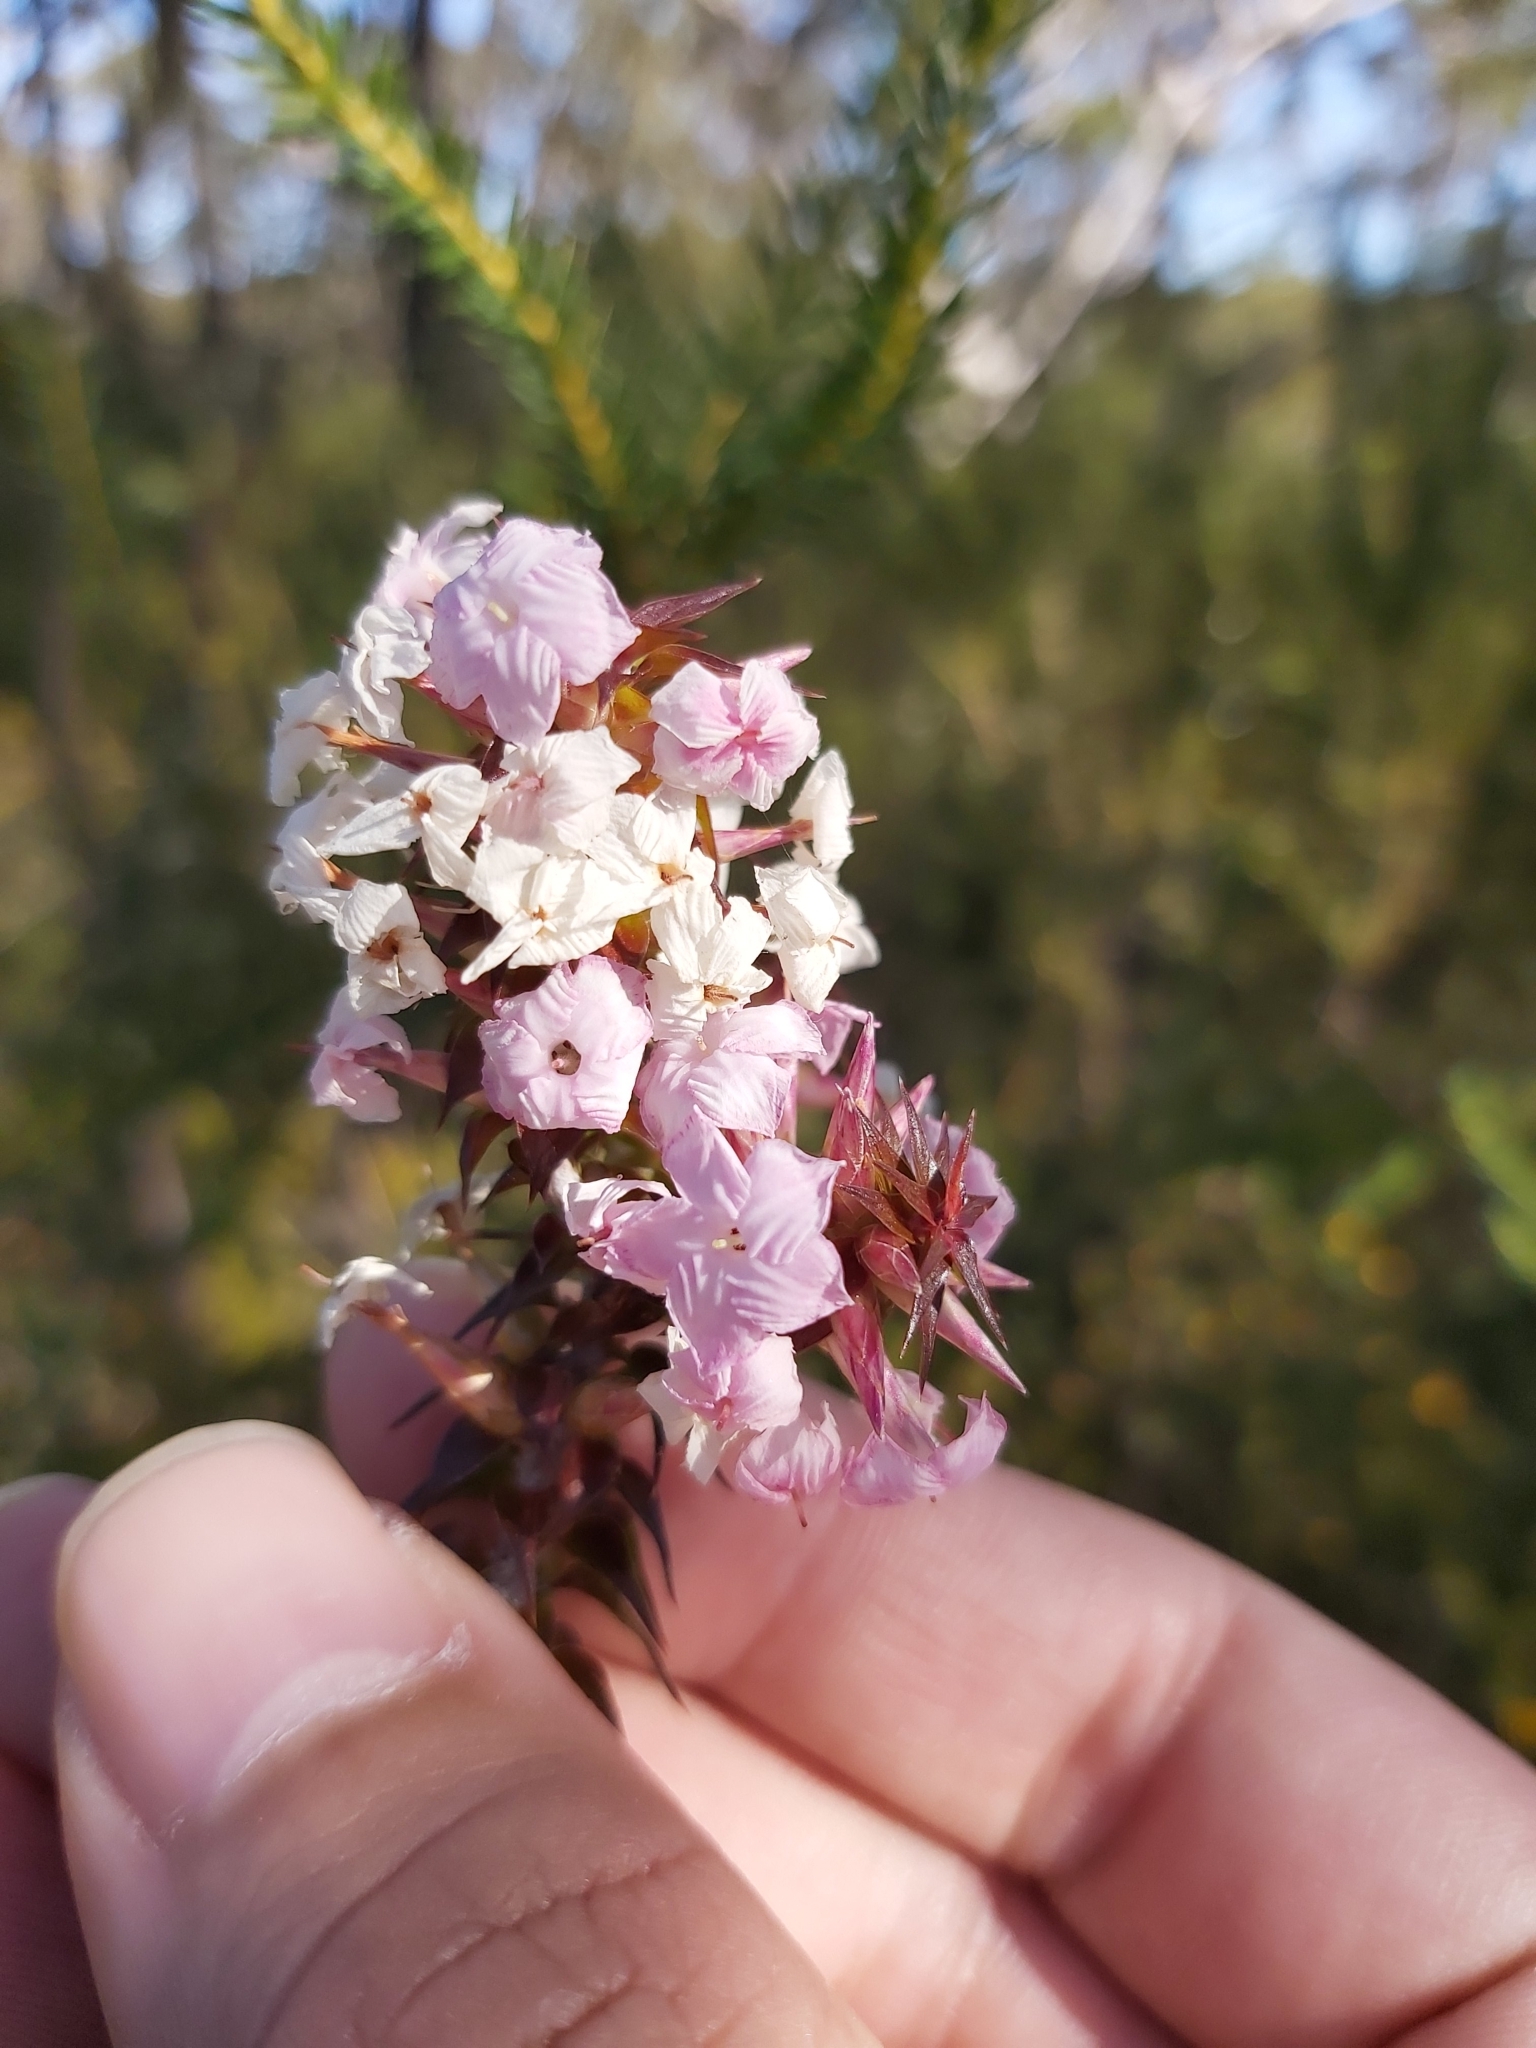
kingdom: Plantae
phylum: Tracheophyta
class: Magnoliopsida
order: Ericales
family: Ericaceae
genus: Woollsia
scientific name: Woollsia pungens
